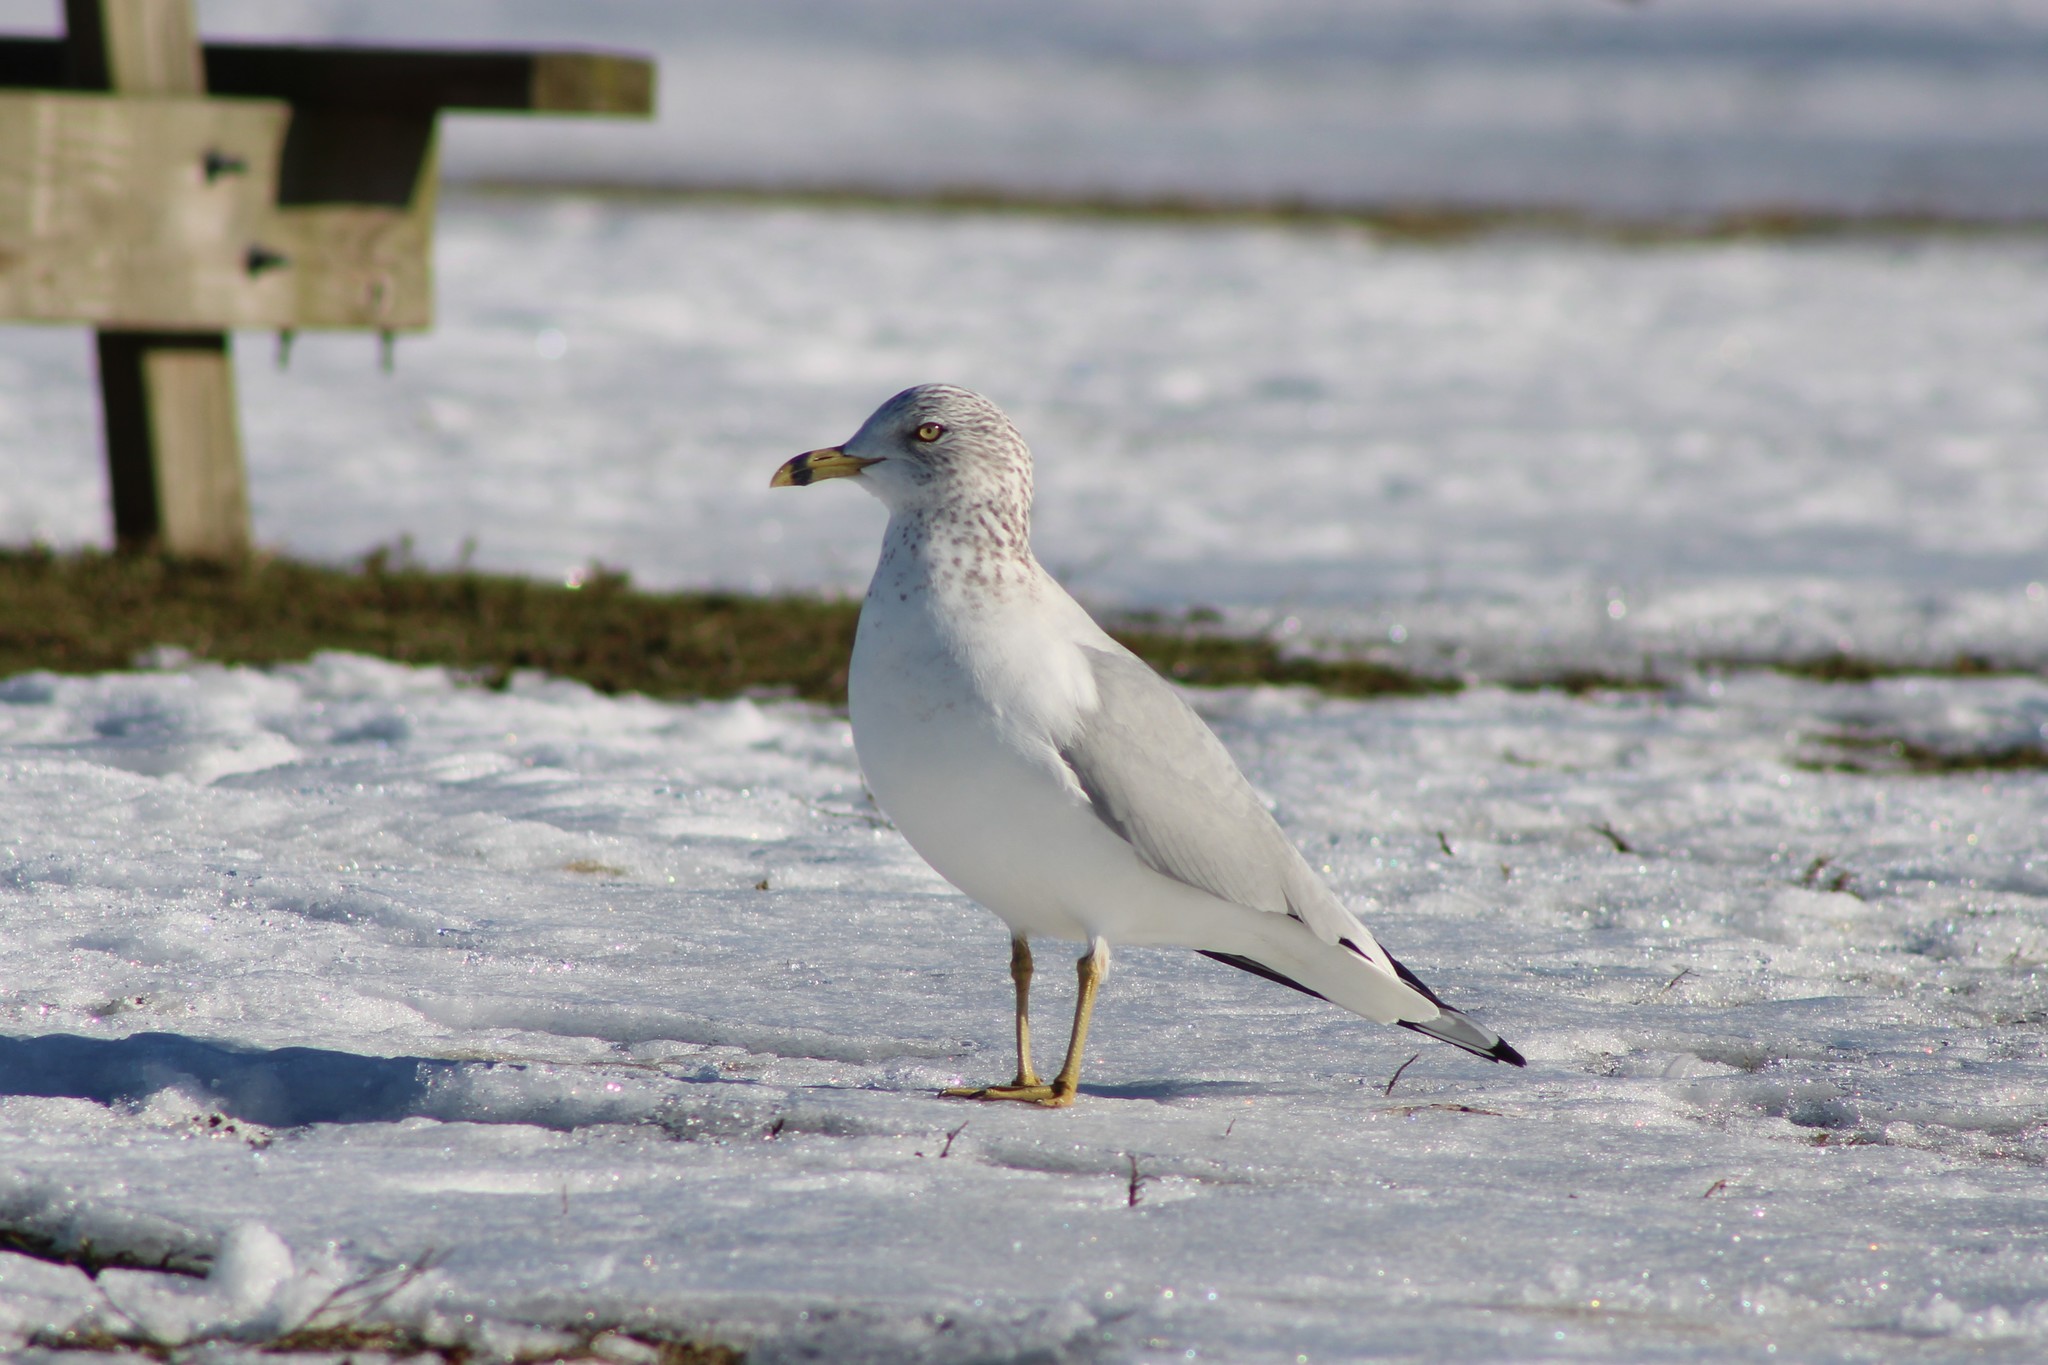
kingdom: Animalia
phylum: Chordata
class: Aves
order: Charadriiformes
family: Laridae
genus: Larus
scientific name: Larus delawarensis
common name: Ring-billed gull
